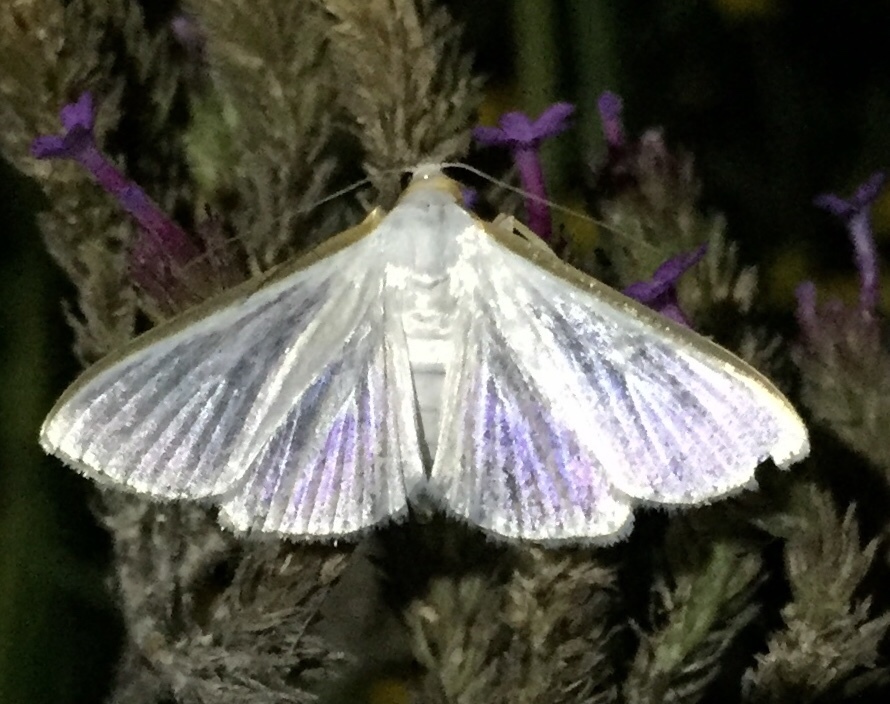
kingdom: Animalia
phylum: Arthropoda
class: Insecta
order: Lepidoptera
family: Crambidae
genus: Diaphania
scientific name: Diaphania costata
